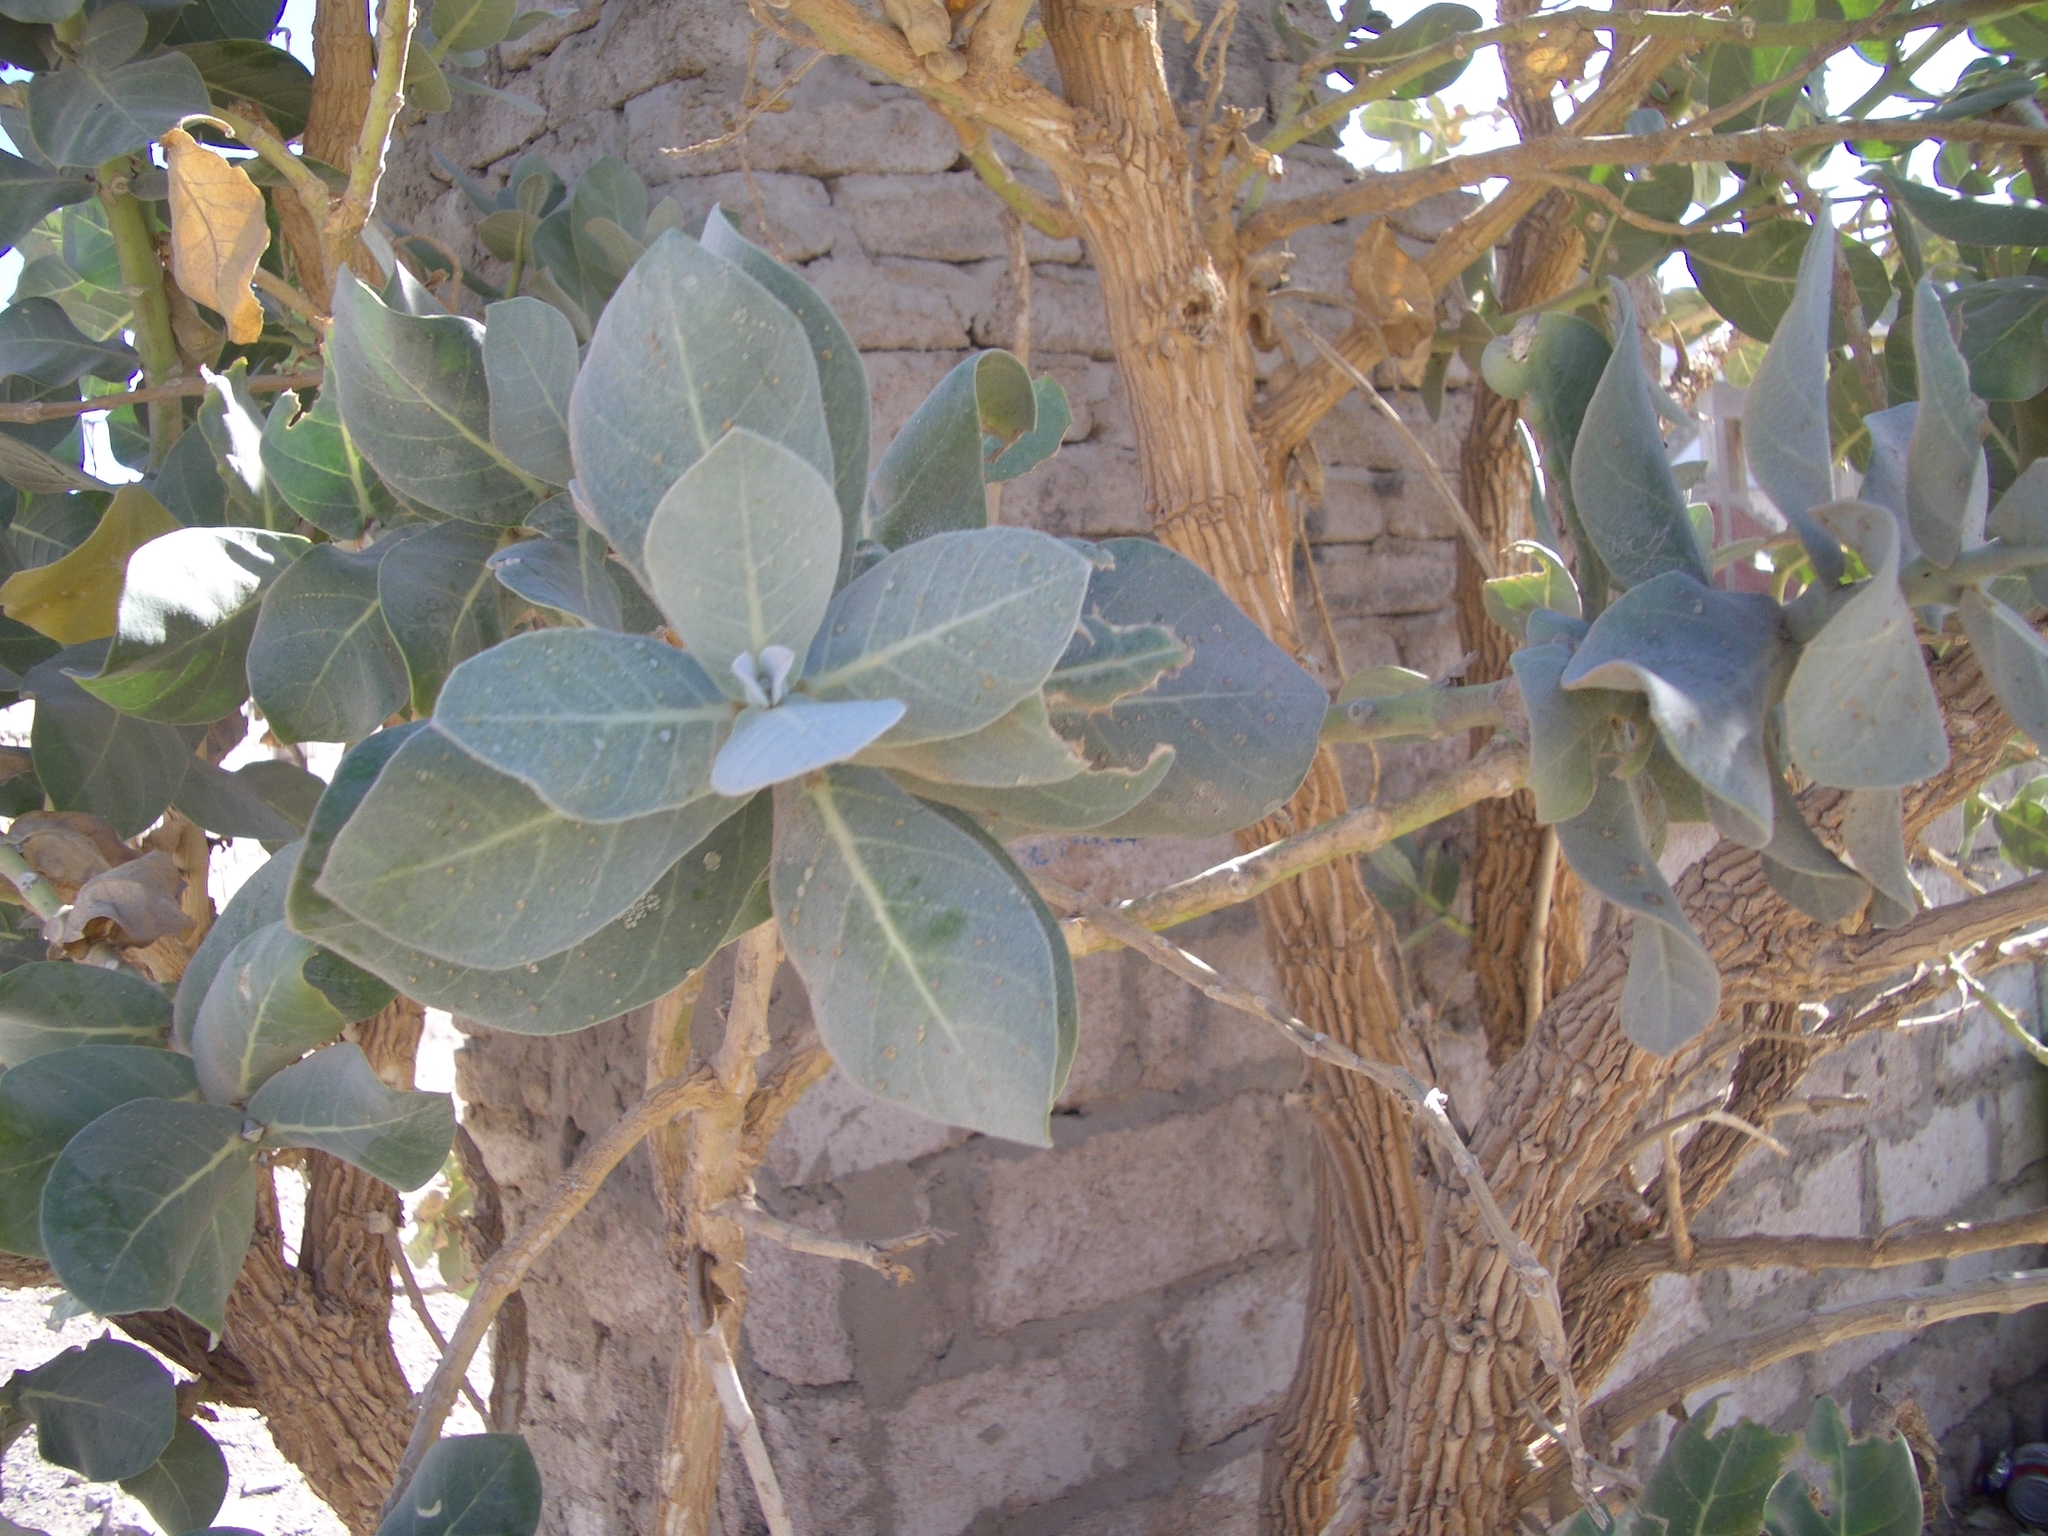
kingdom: Plantae
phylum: Tracheophyta
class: Magnoliopsida
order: Gentianales
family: Apocynaceae
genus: Calotropis
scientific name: Calotropis procera
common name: Roostertree
